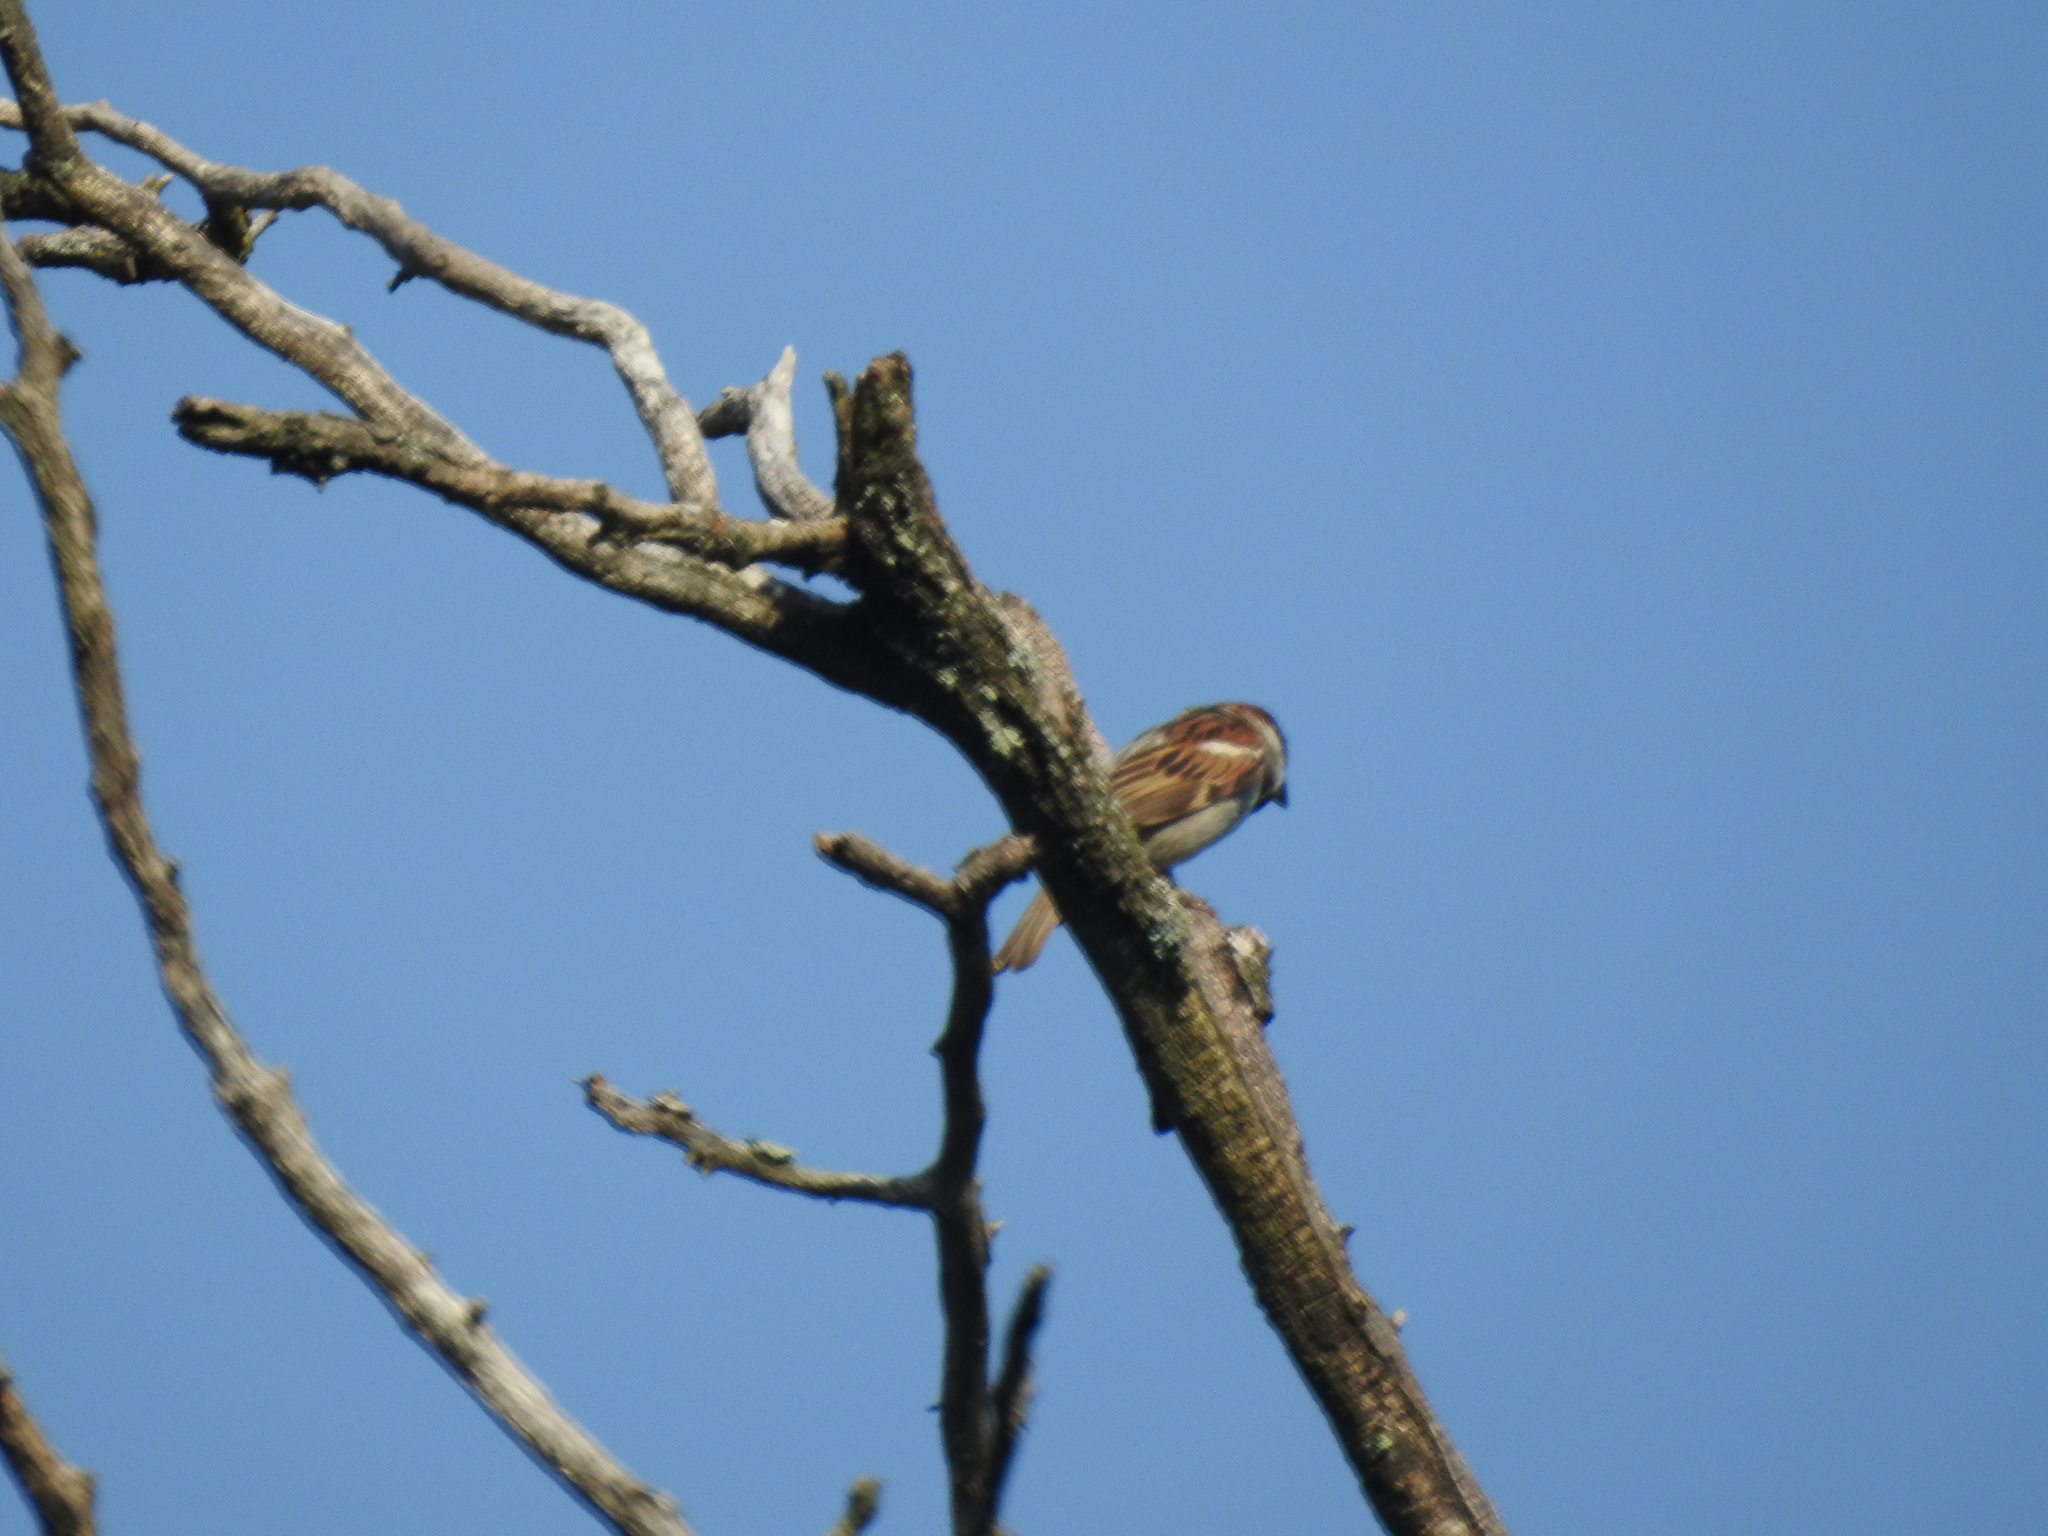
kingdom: Animalia
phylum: Chordata
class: Aves
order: Passeriformes
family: Passeridae
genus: Passer
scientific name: Passer domesticus
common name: House sparrow
